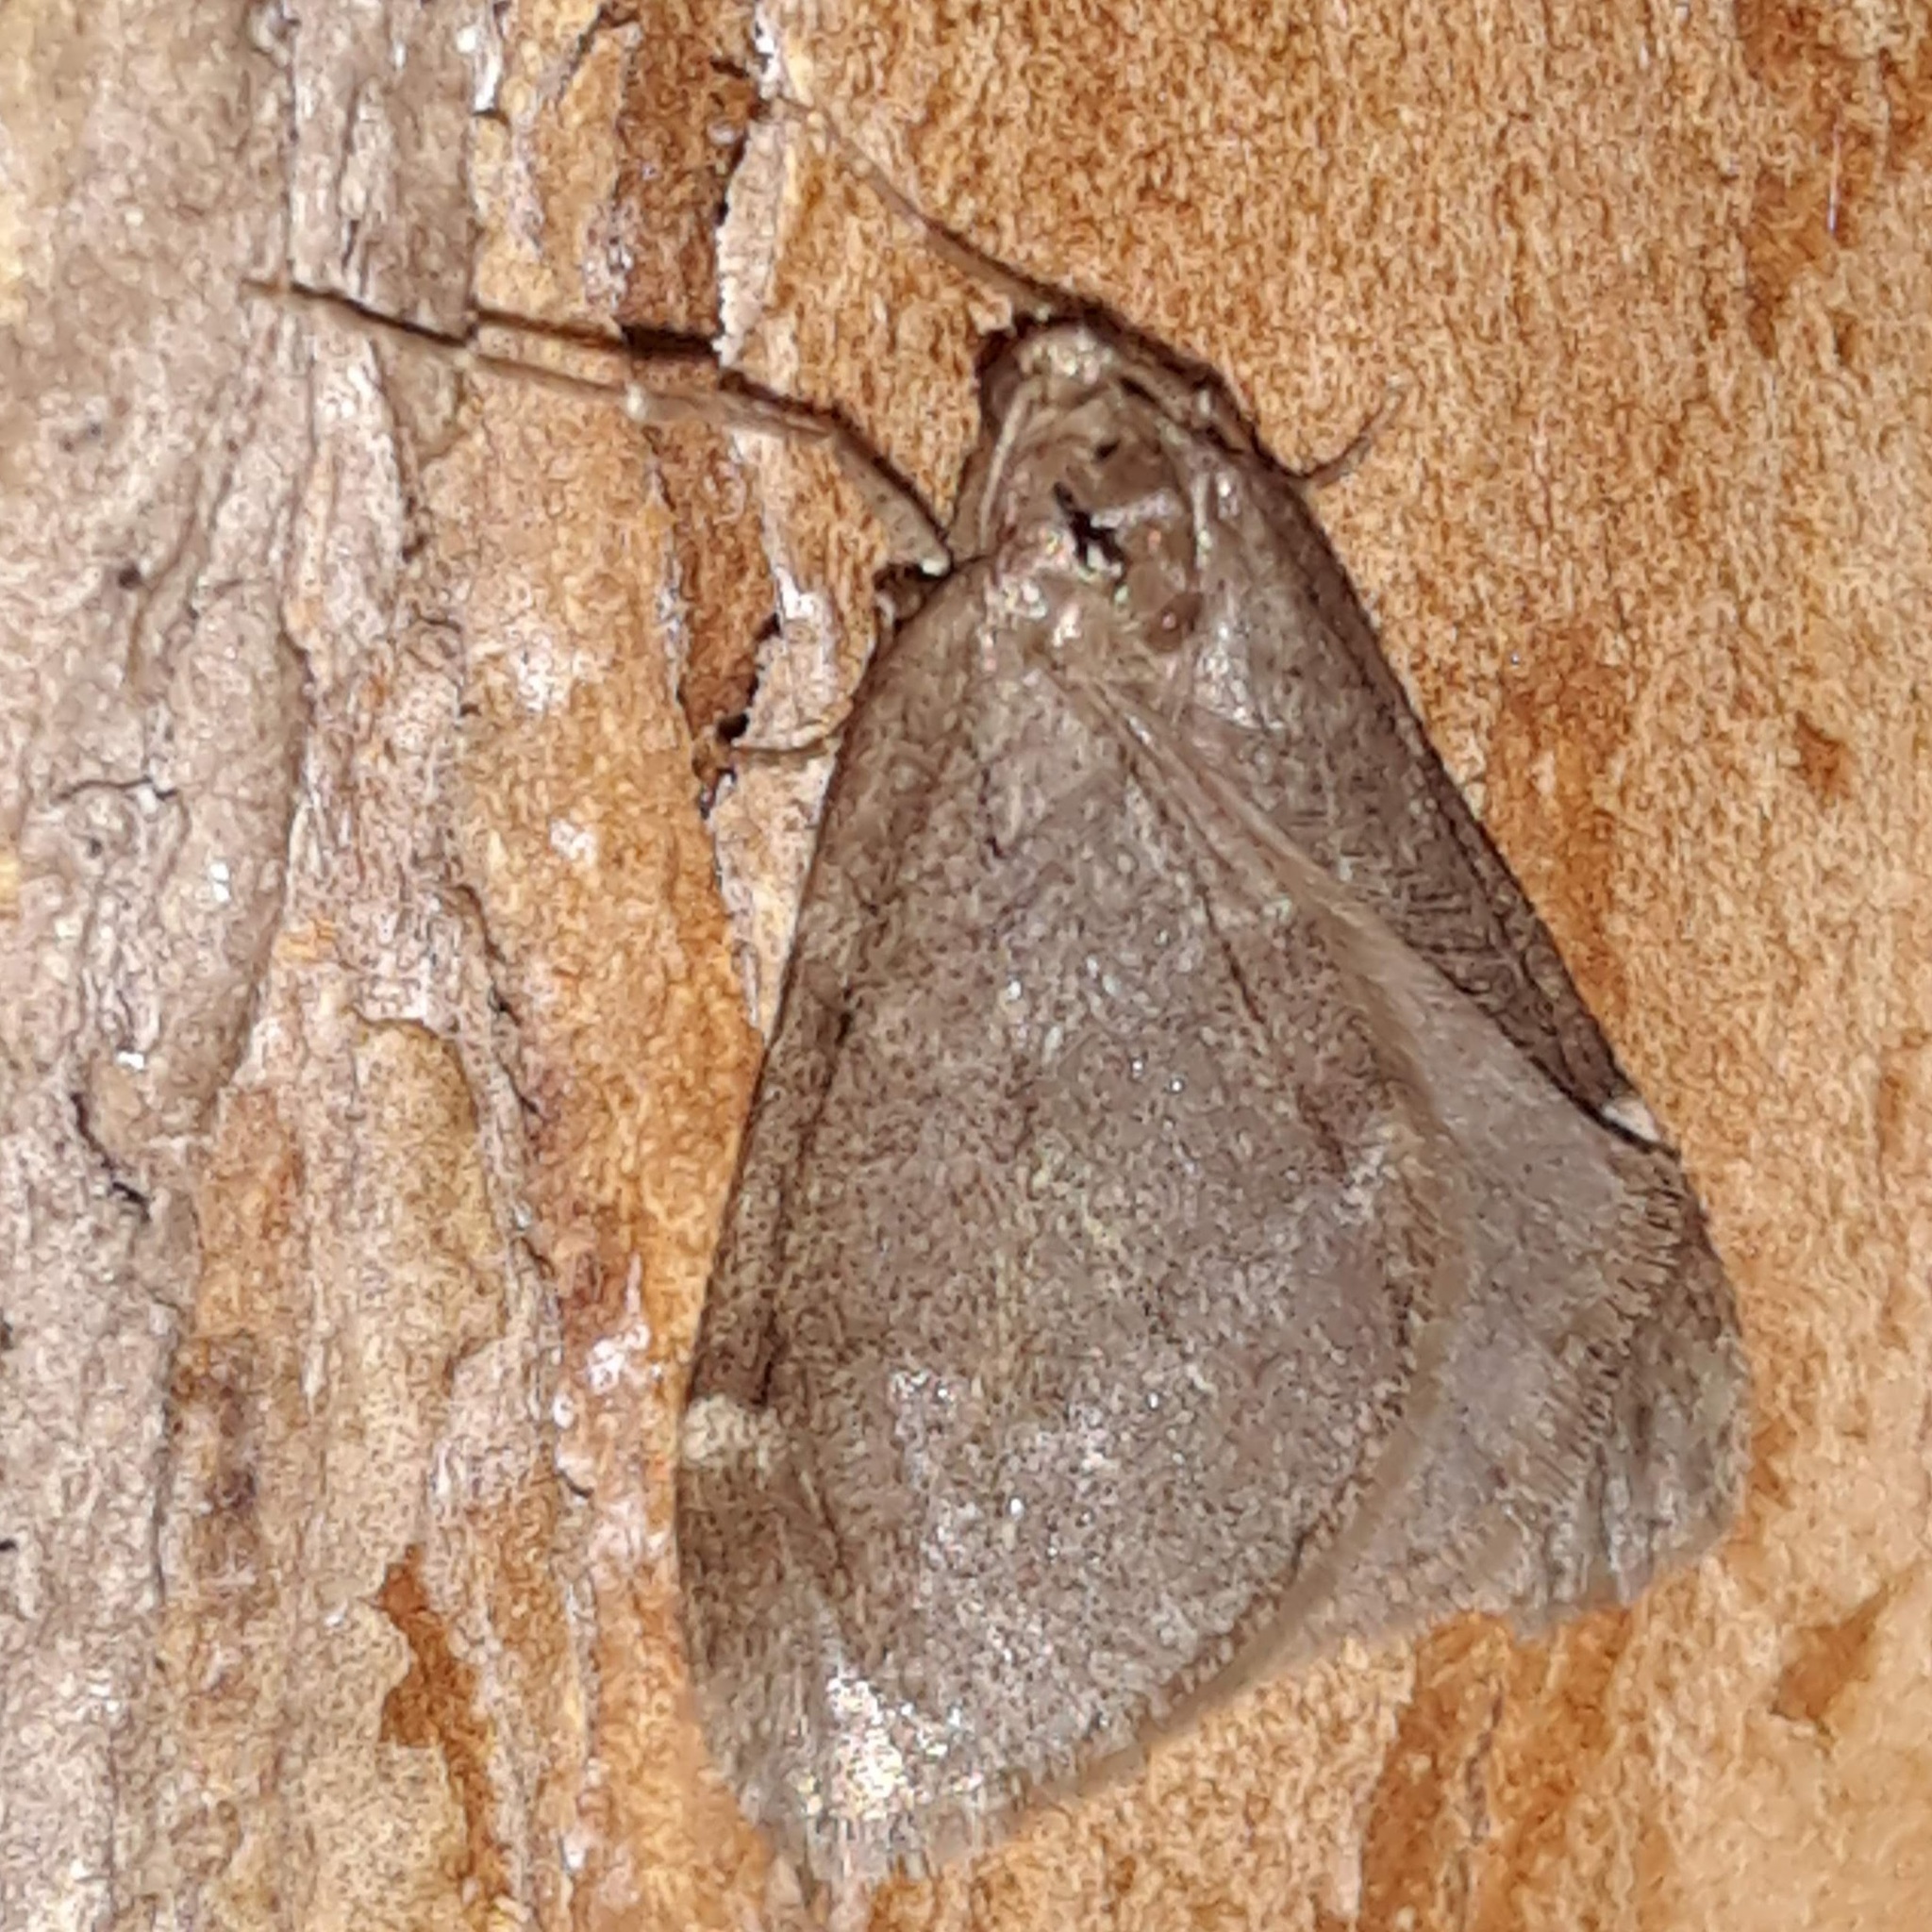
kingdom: Animalia
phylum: Arthropoda
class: Insecta
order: Lepidoptera
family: Geometridae
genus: Alsophila
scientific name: Alsophila pometaria
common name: Fall cankerworm
